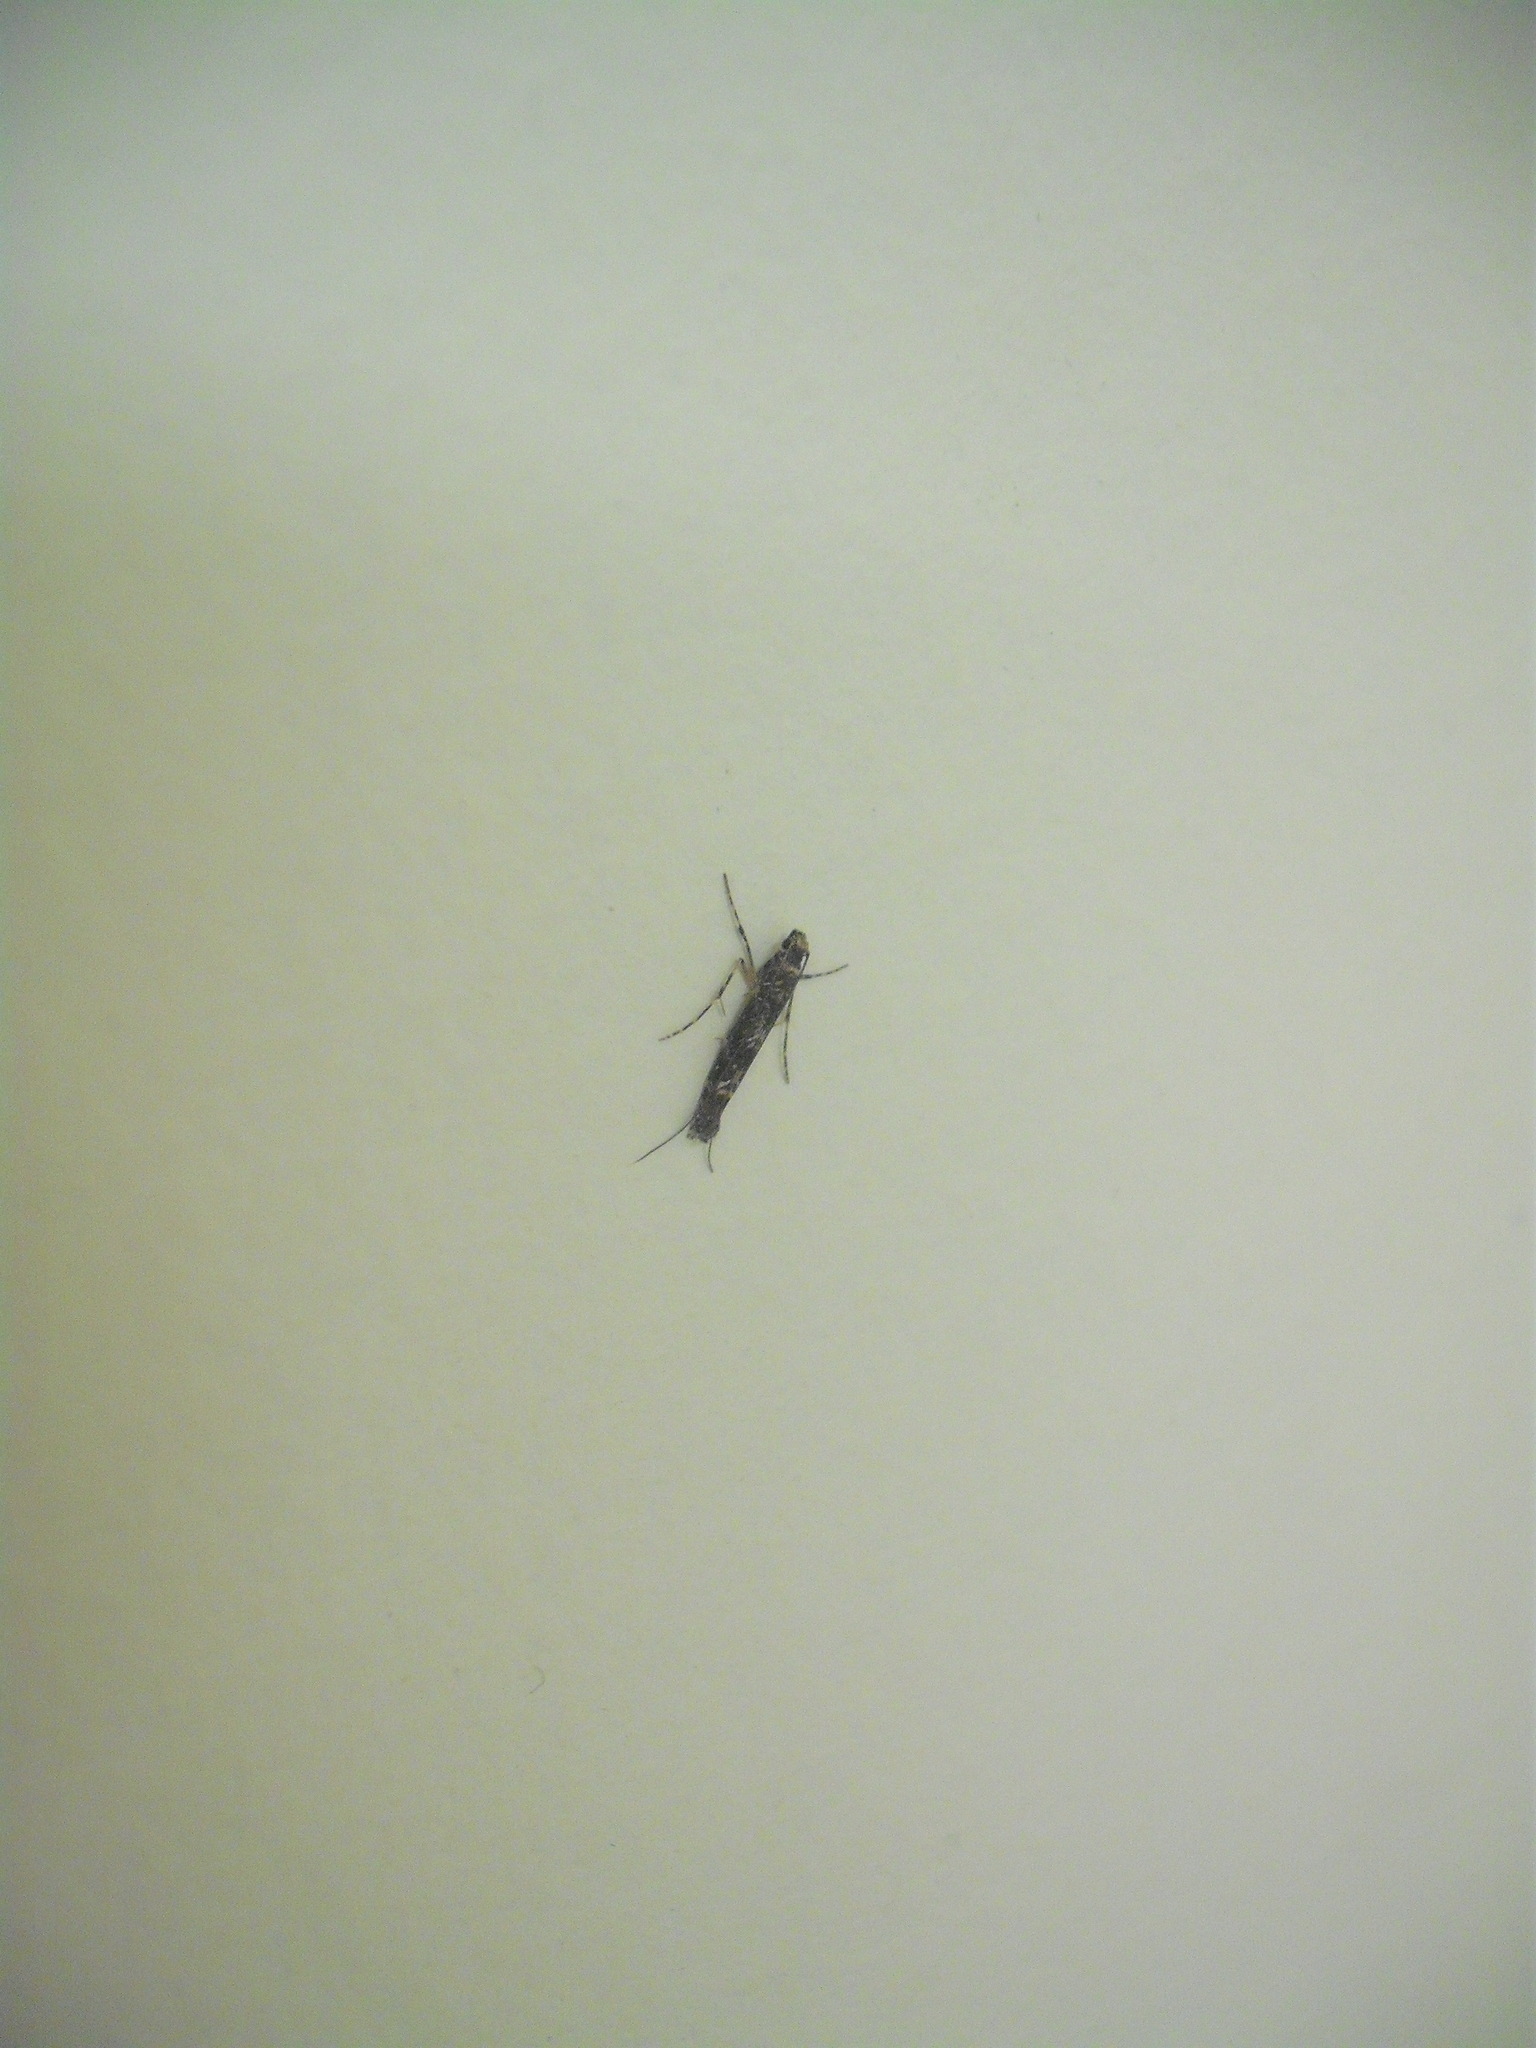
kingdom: Animalia
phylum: Arthropoda
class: Insecta
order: Lepidoptera
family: Gracillariidae
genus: Conopomorpha
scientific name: Conopomorpha cyanospila
